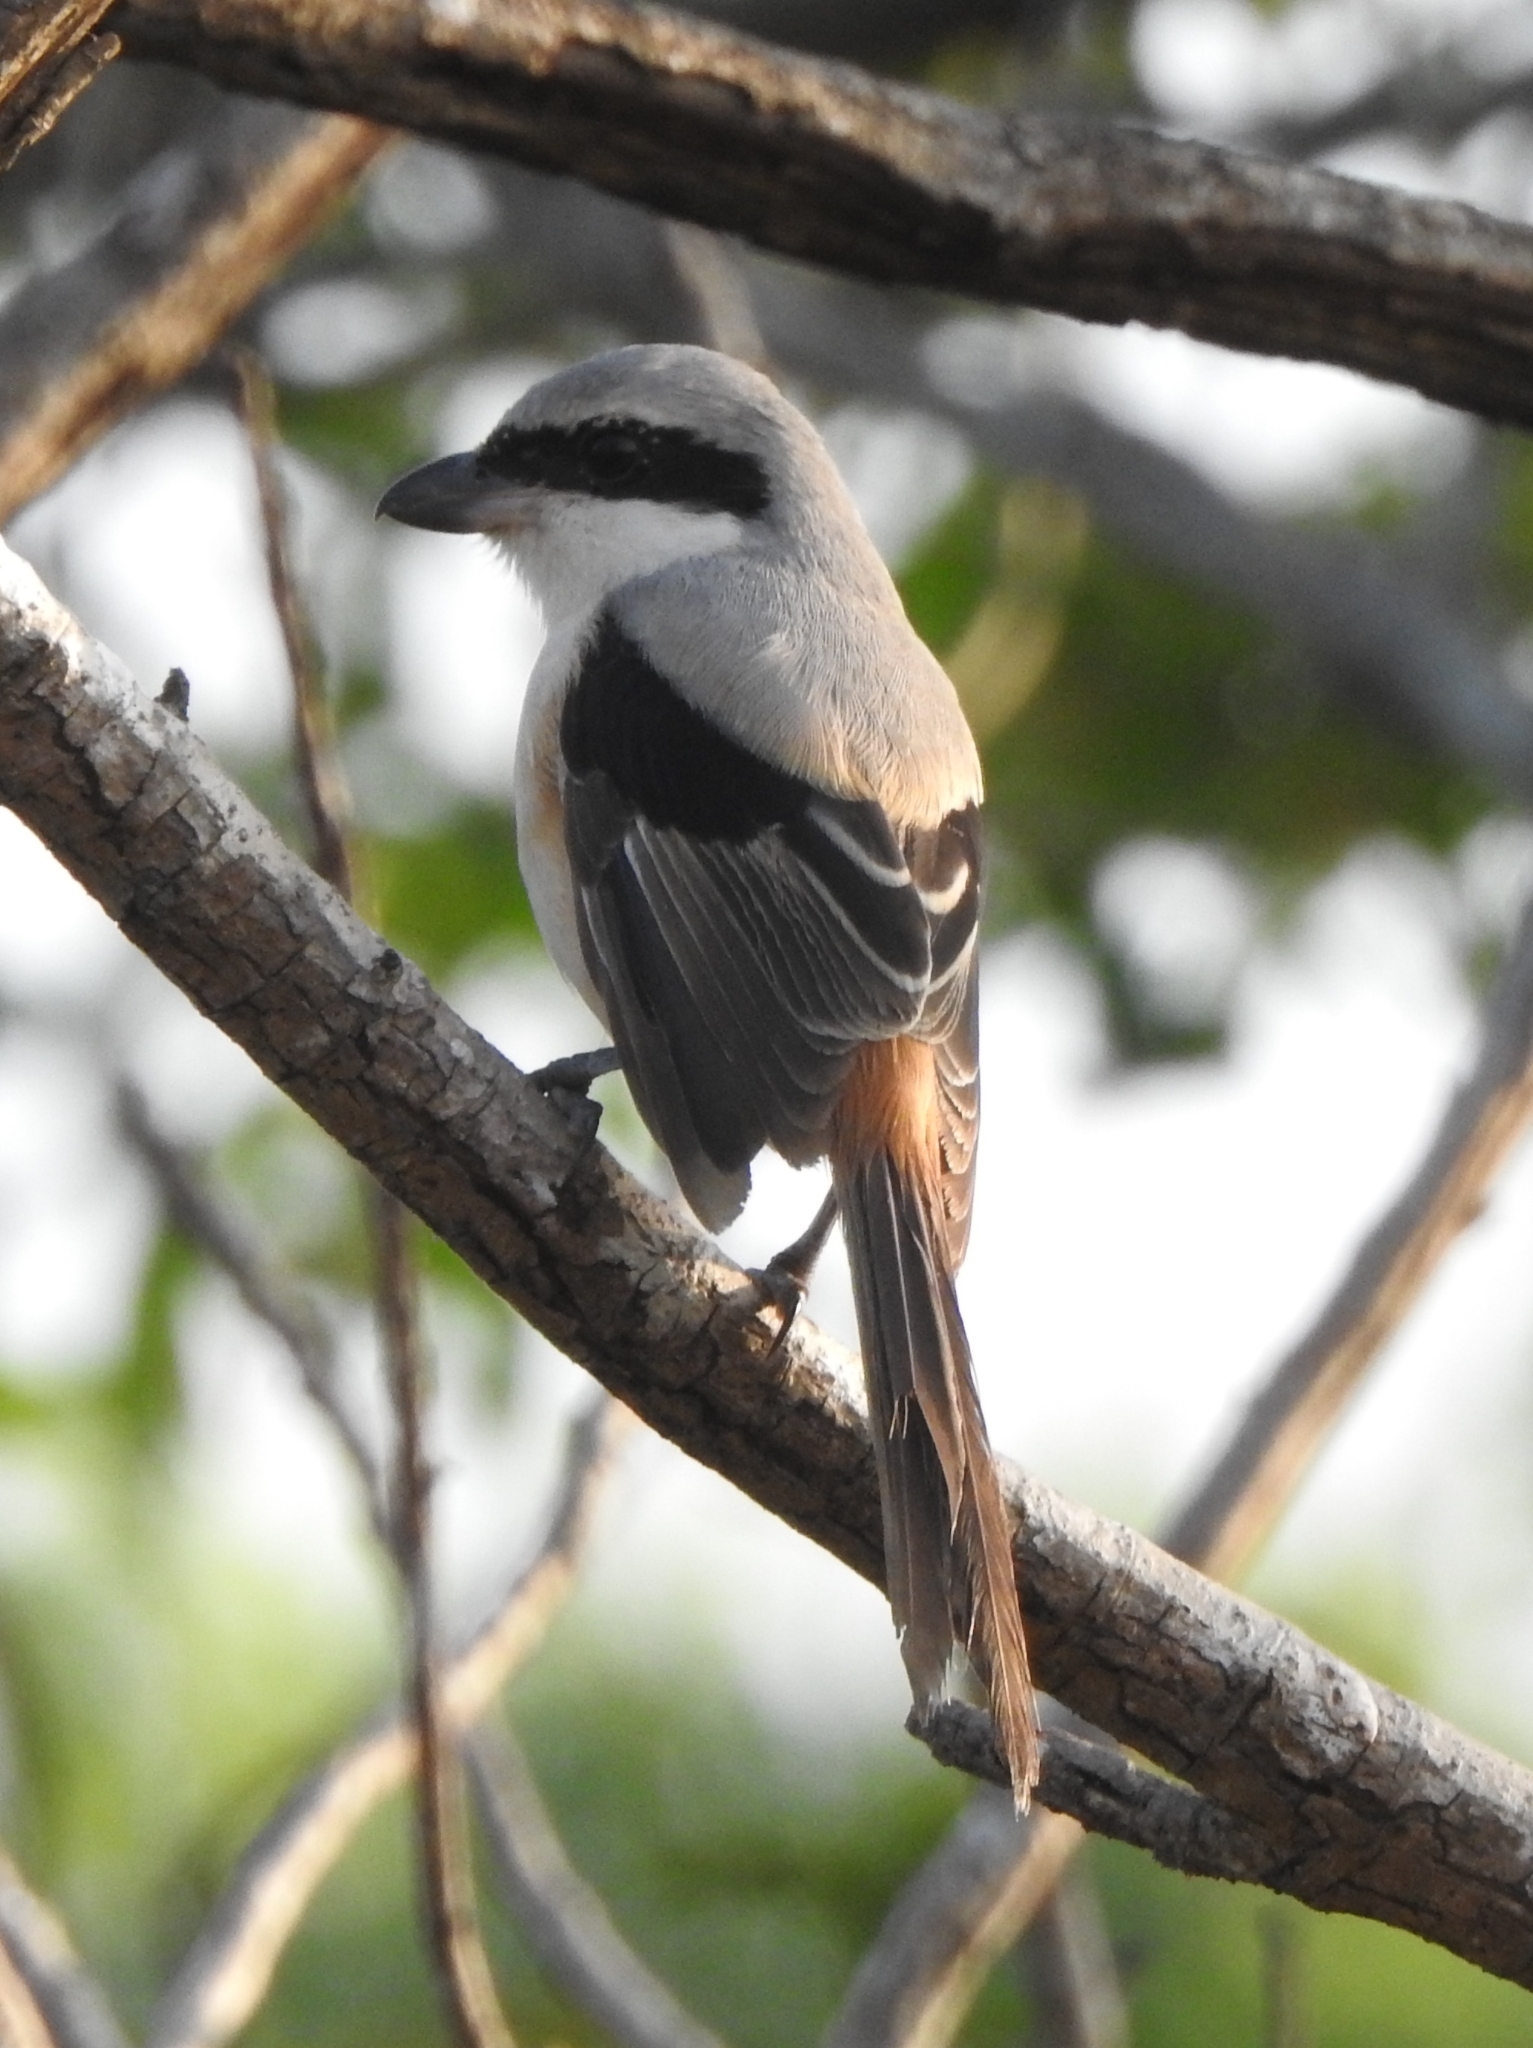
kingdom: Animalia
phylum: Chordata
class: Aves
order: Passeriformes
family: Laniidae
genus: Lanius
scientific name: Lanius schach
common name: Long-tailed shrike
